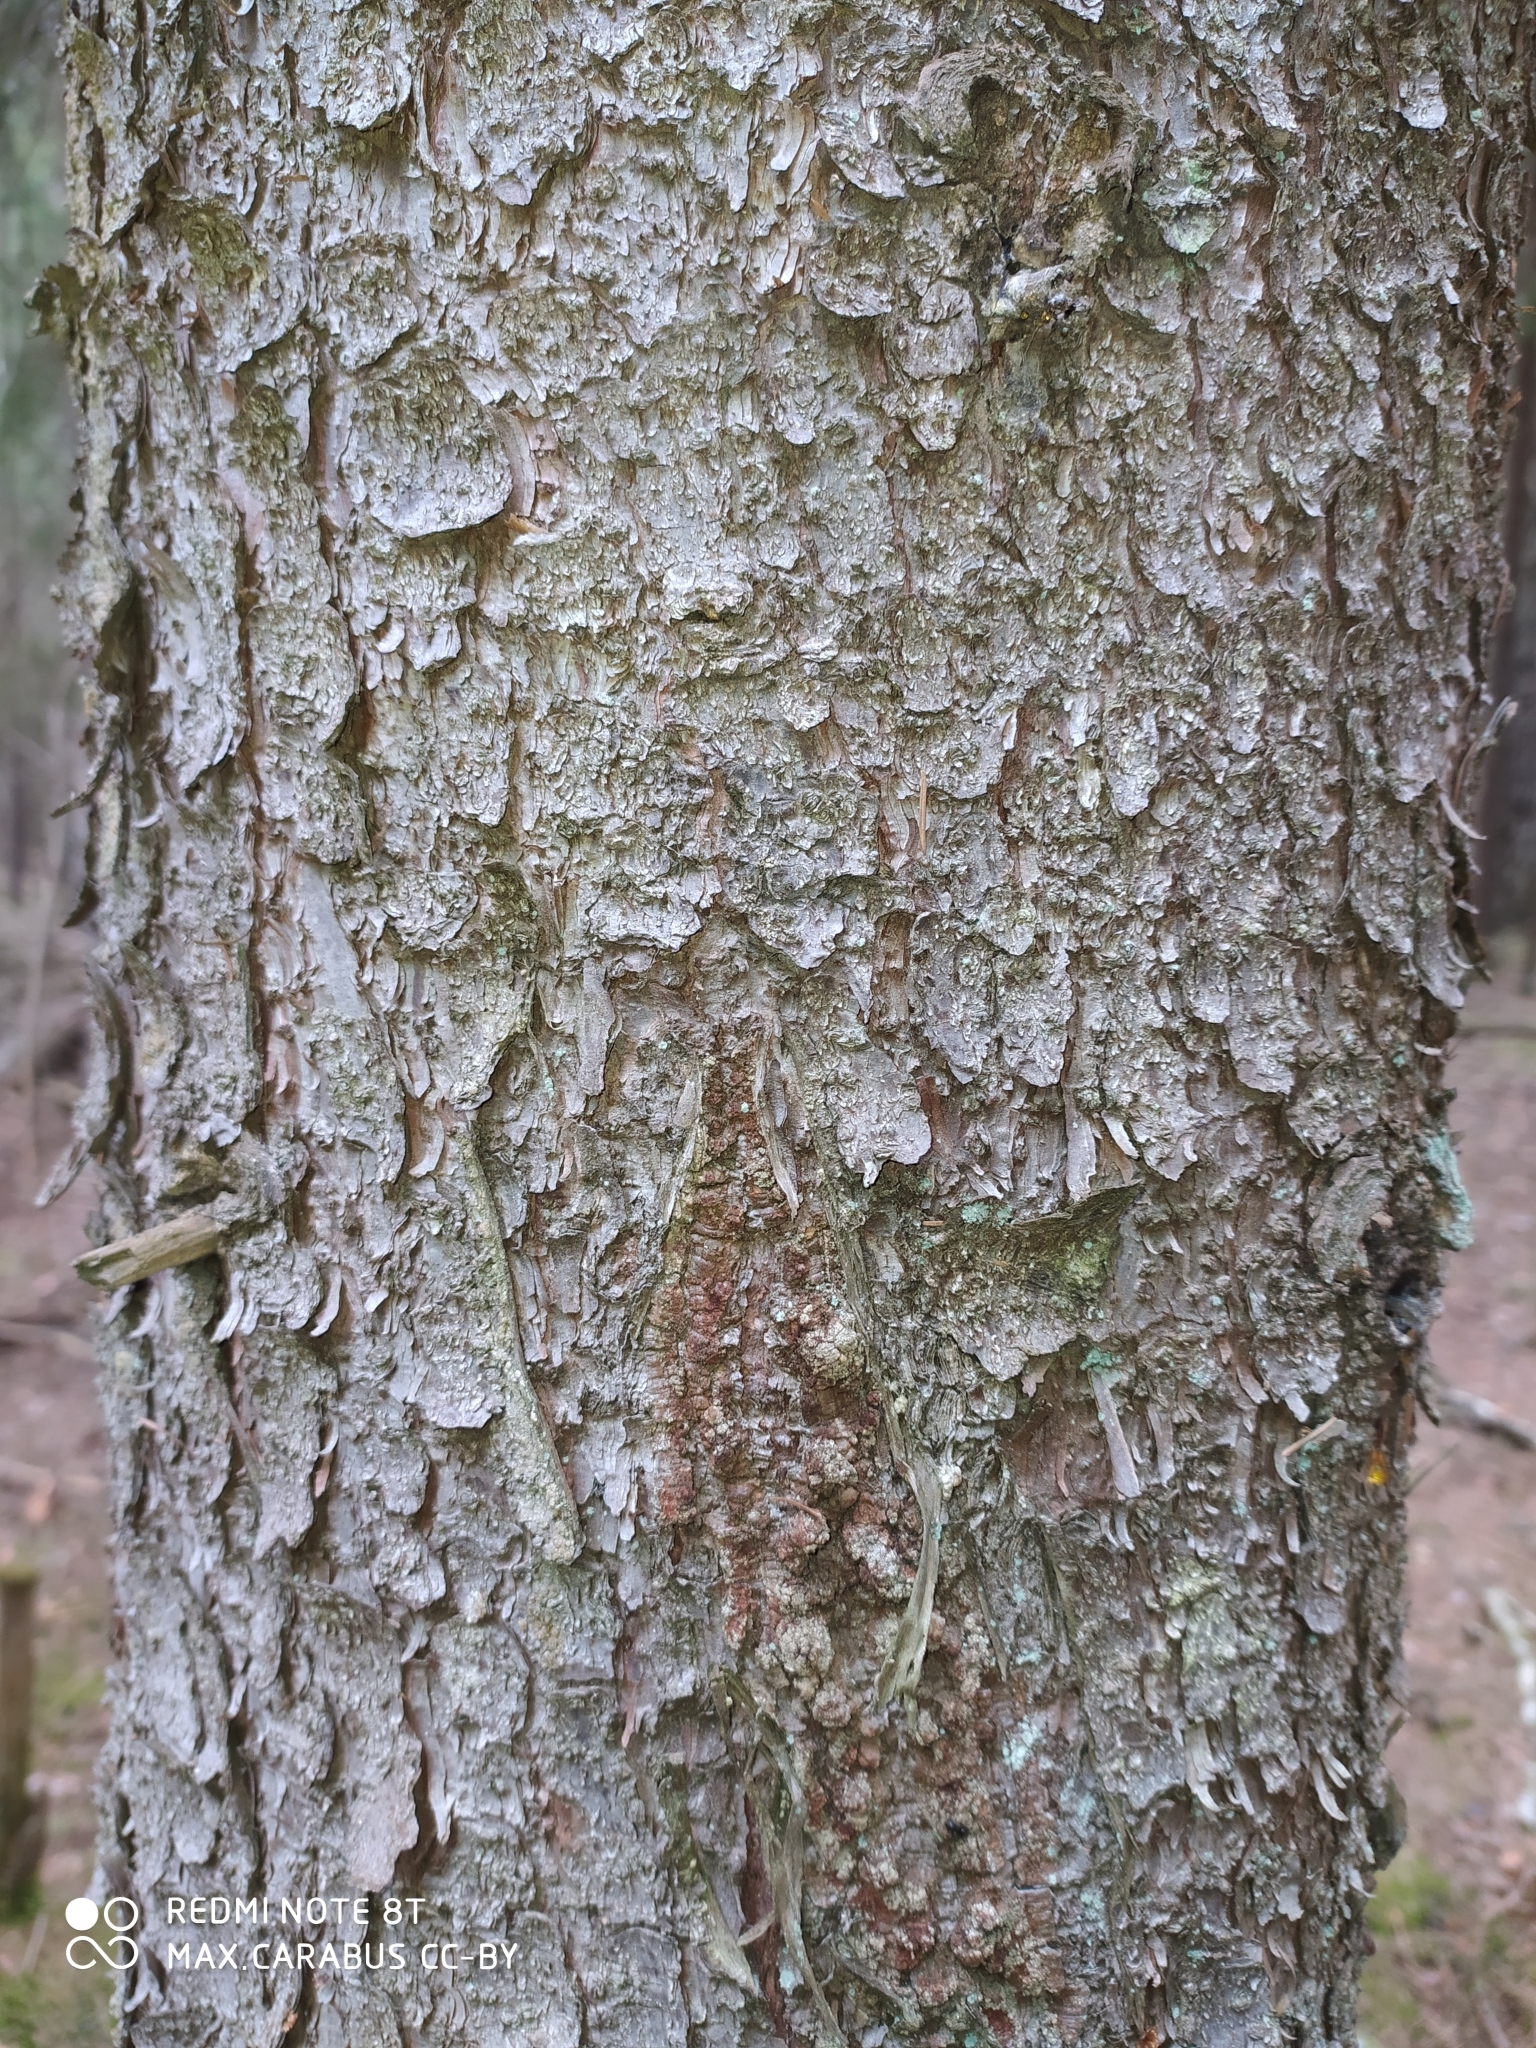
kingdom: Plantae
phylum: Tracheophyta
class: Pinopsida
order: Pinales
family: Pinaceae
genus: Picea
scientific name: Picea abies
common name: Norway spruce
